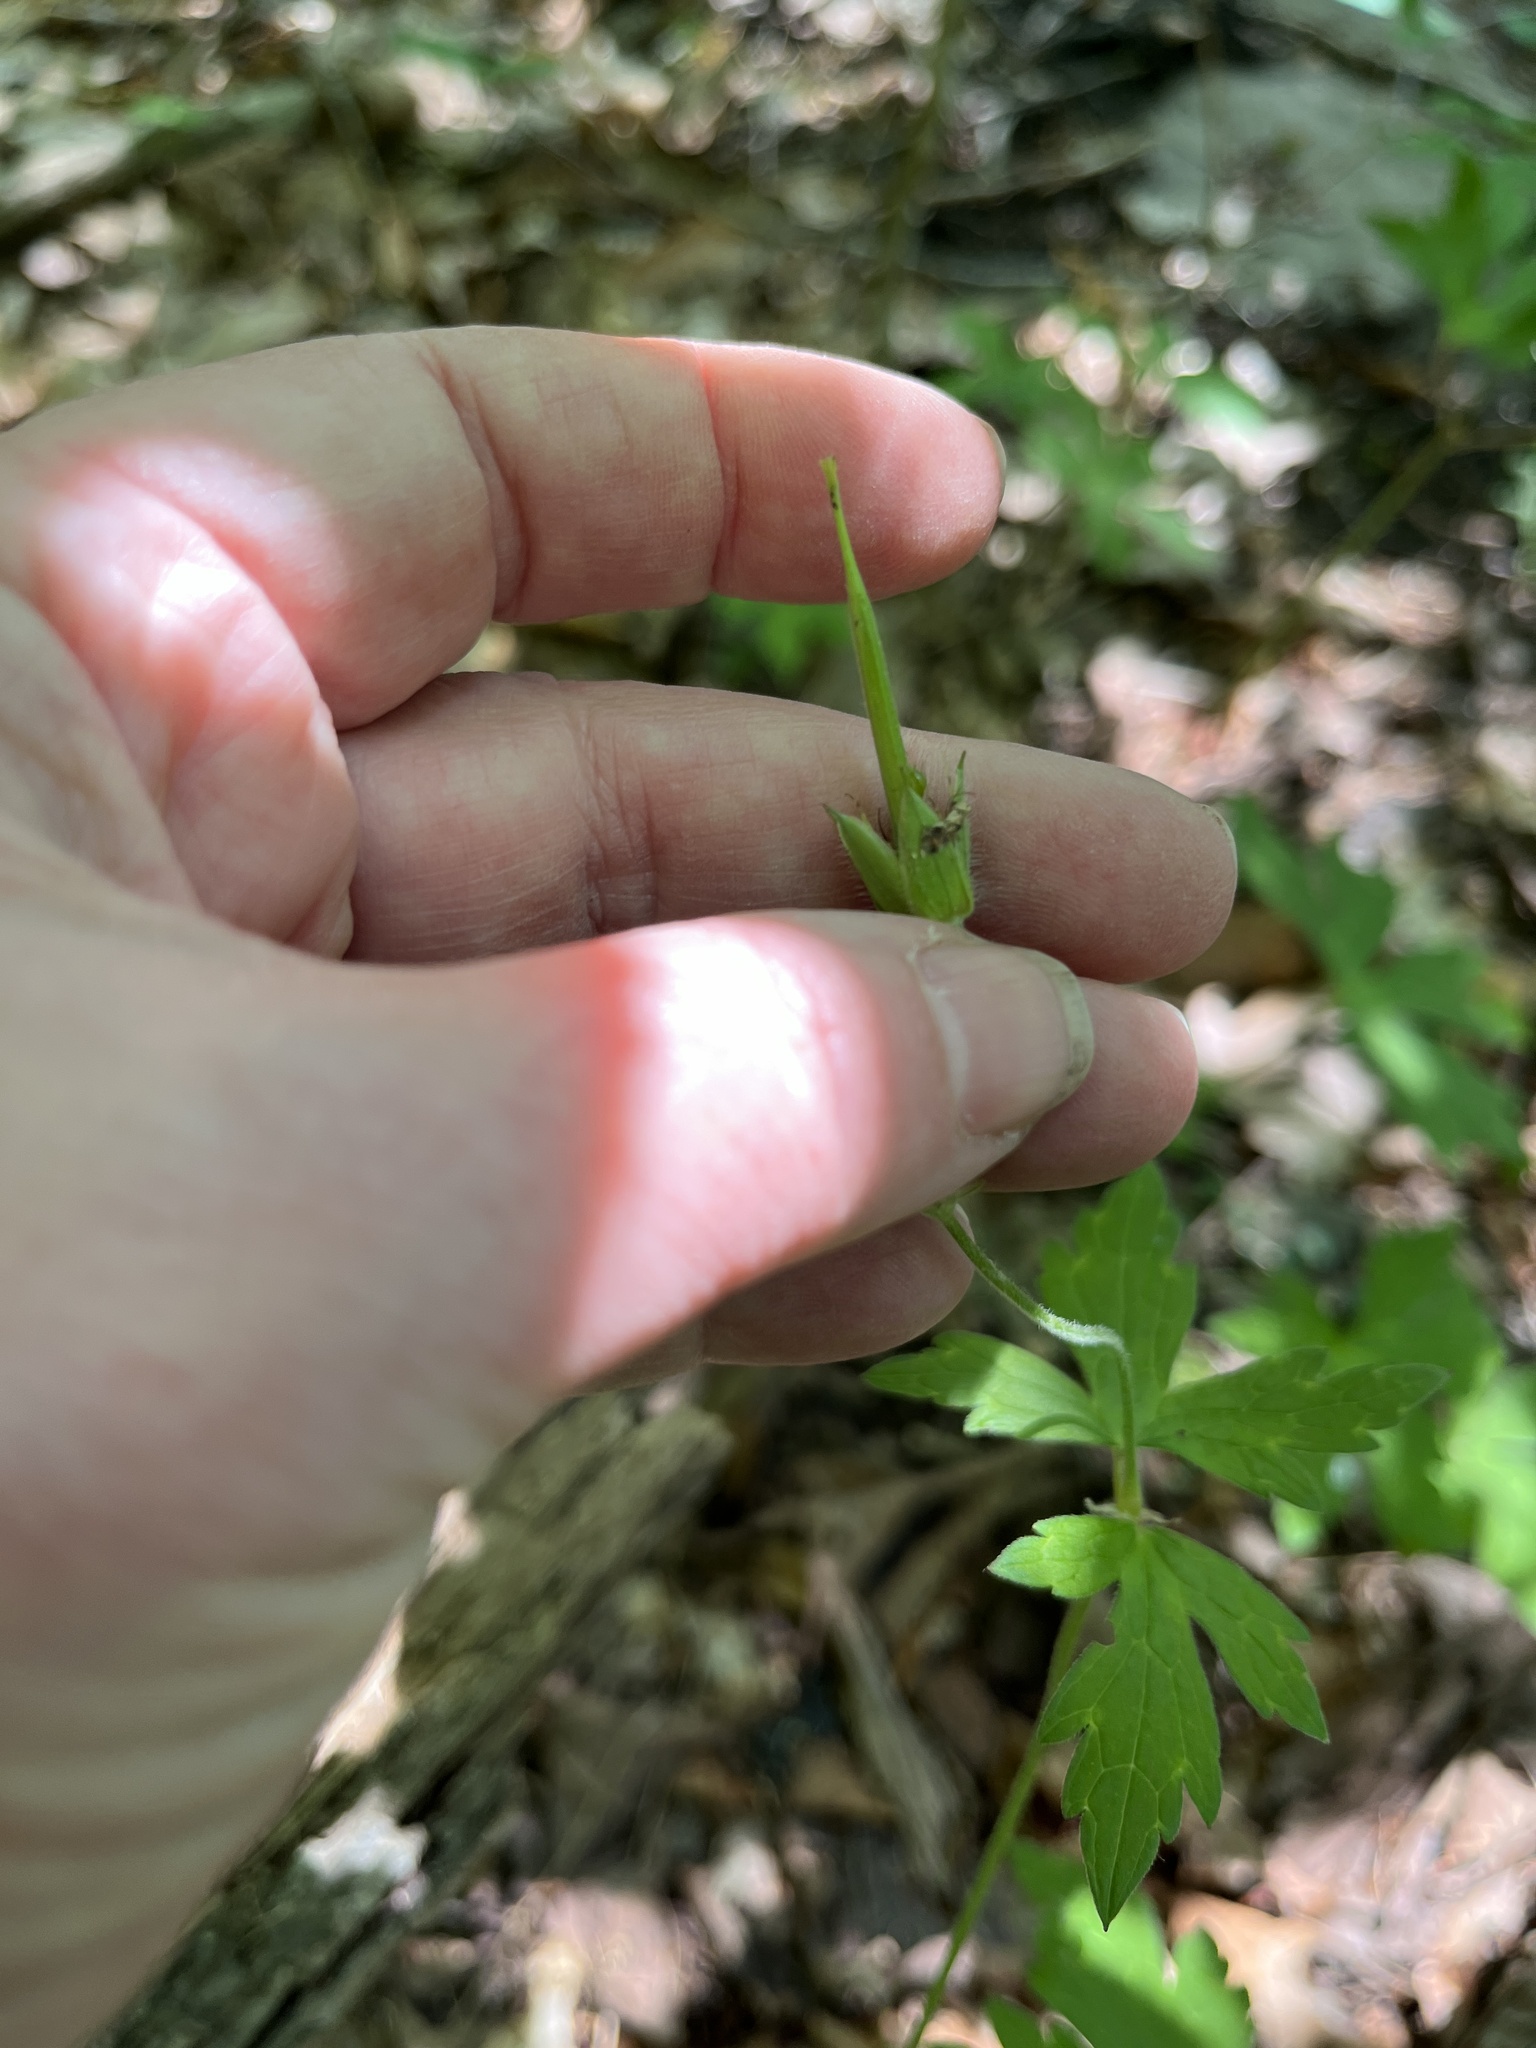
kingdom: Plantae
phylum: Tracheophyta
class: Magnoliopsida
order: Geraniales
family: Geraniaceae
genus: Geranium
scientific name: Geranium maculatum
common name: Spotted geranium
